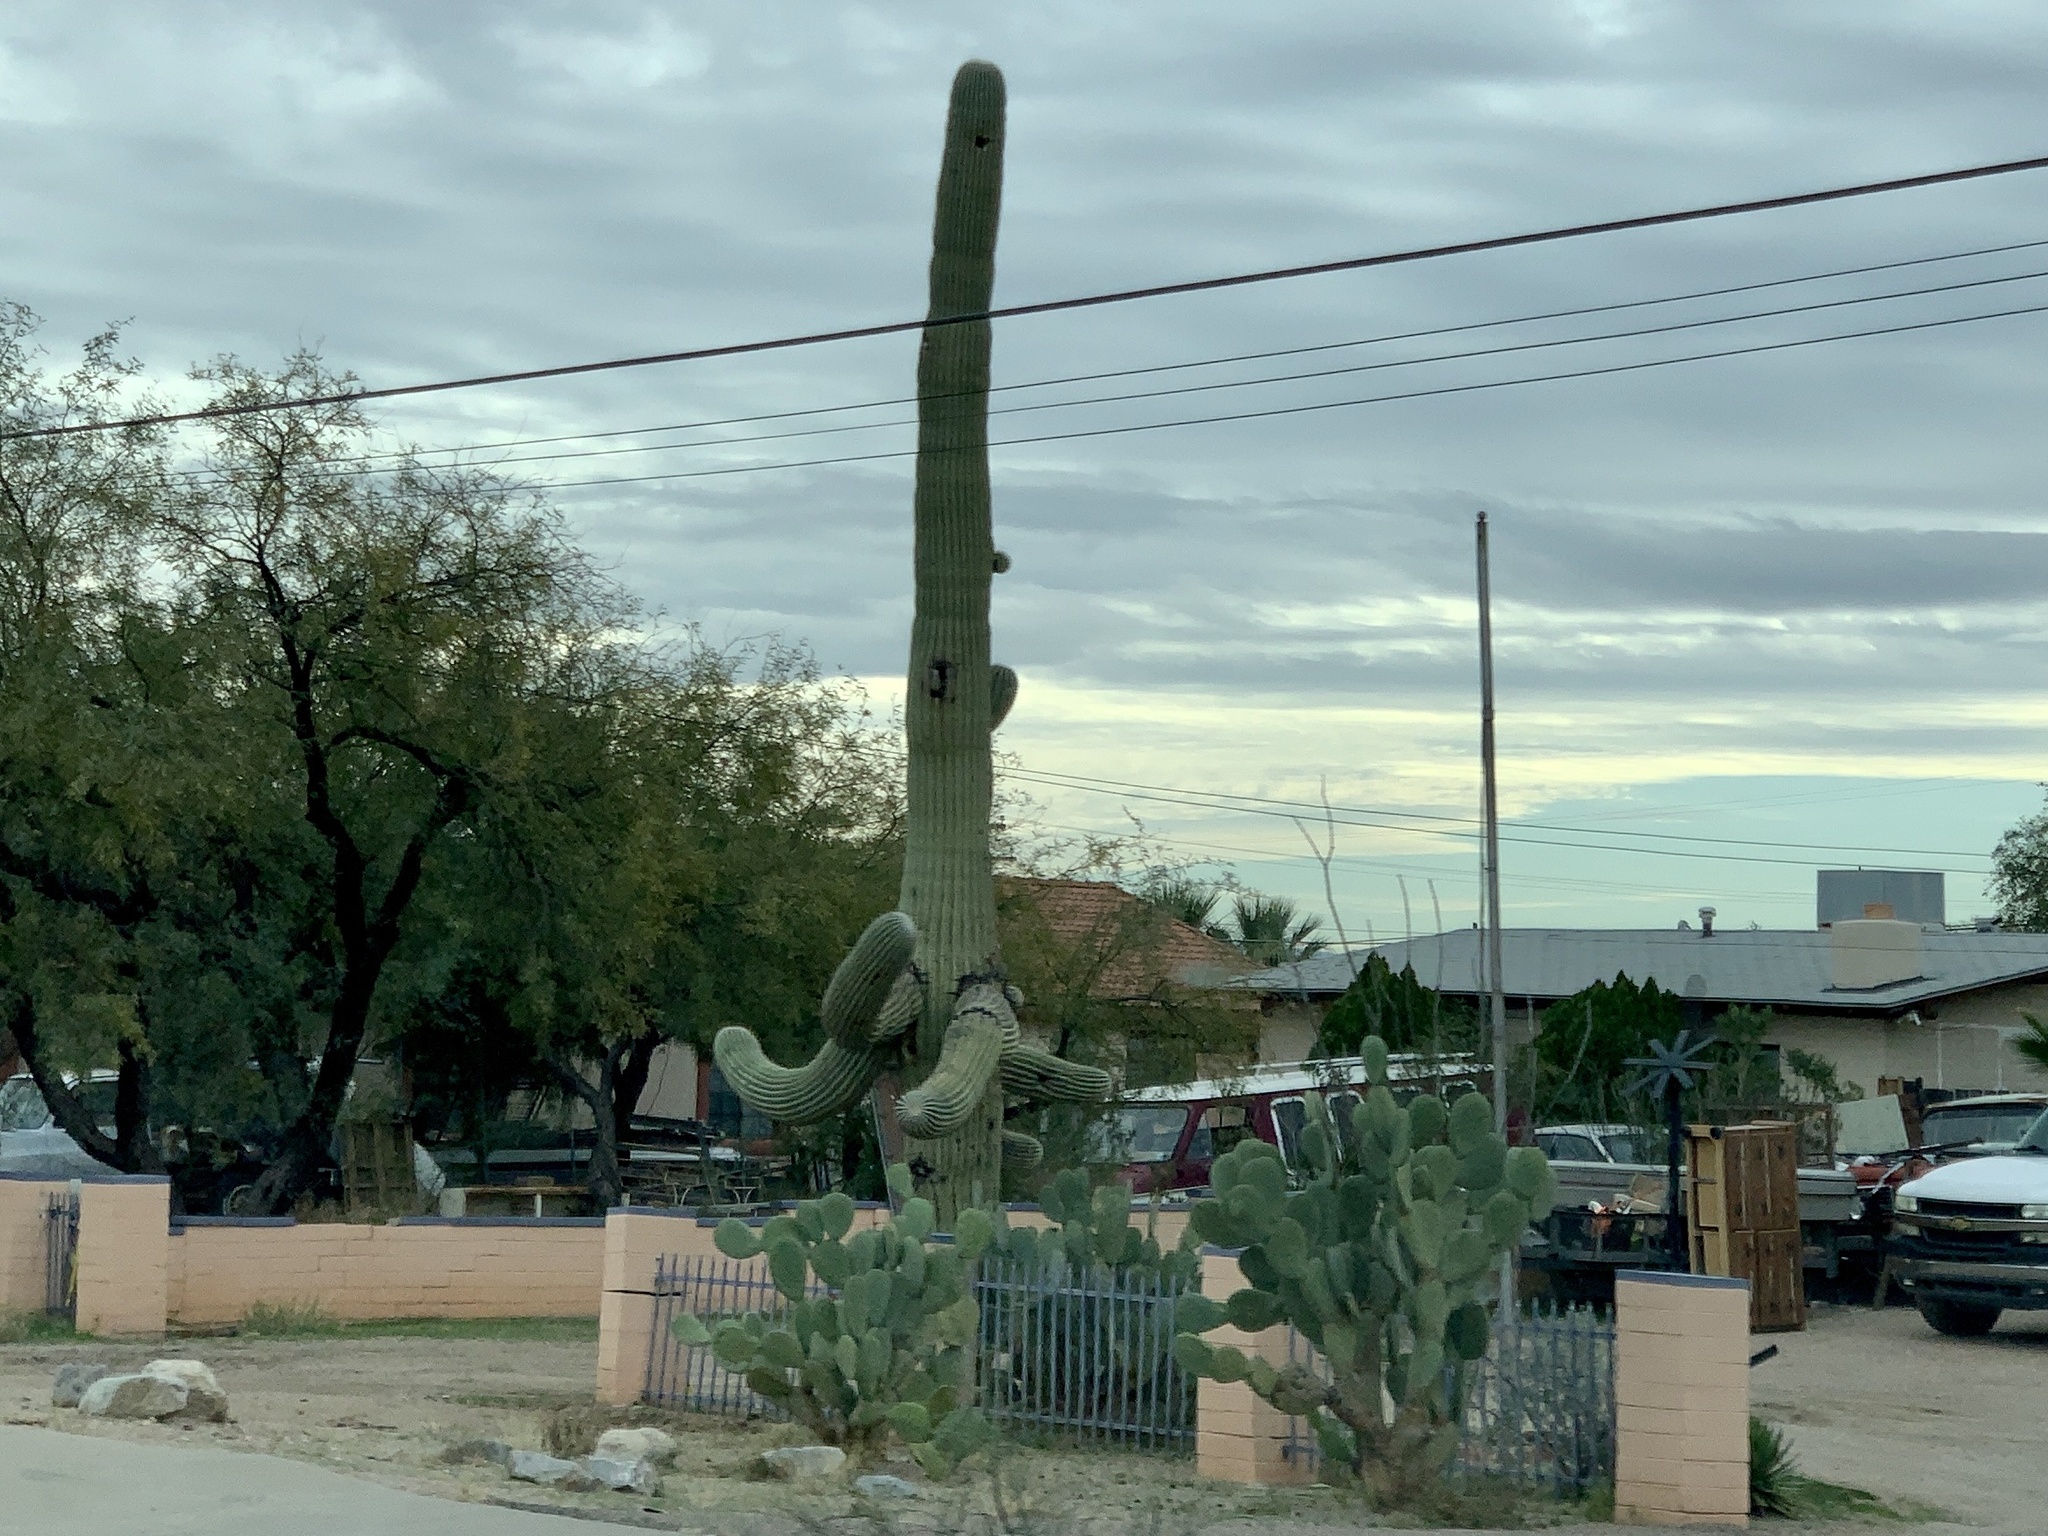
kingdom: Plantae
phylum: Tracheophyta
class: Magnoliopsida
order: Caryophyllales
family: Cactaceae
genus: Carnegiea
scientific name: Carnegiea gigantea
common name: Saguaro
